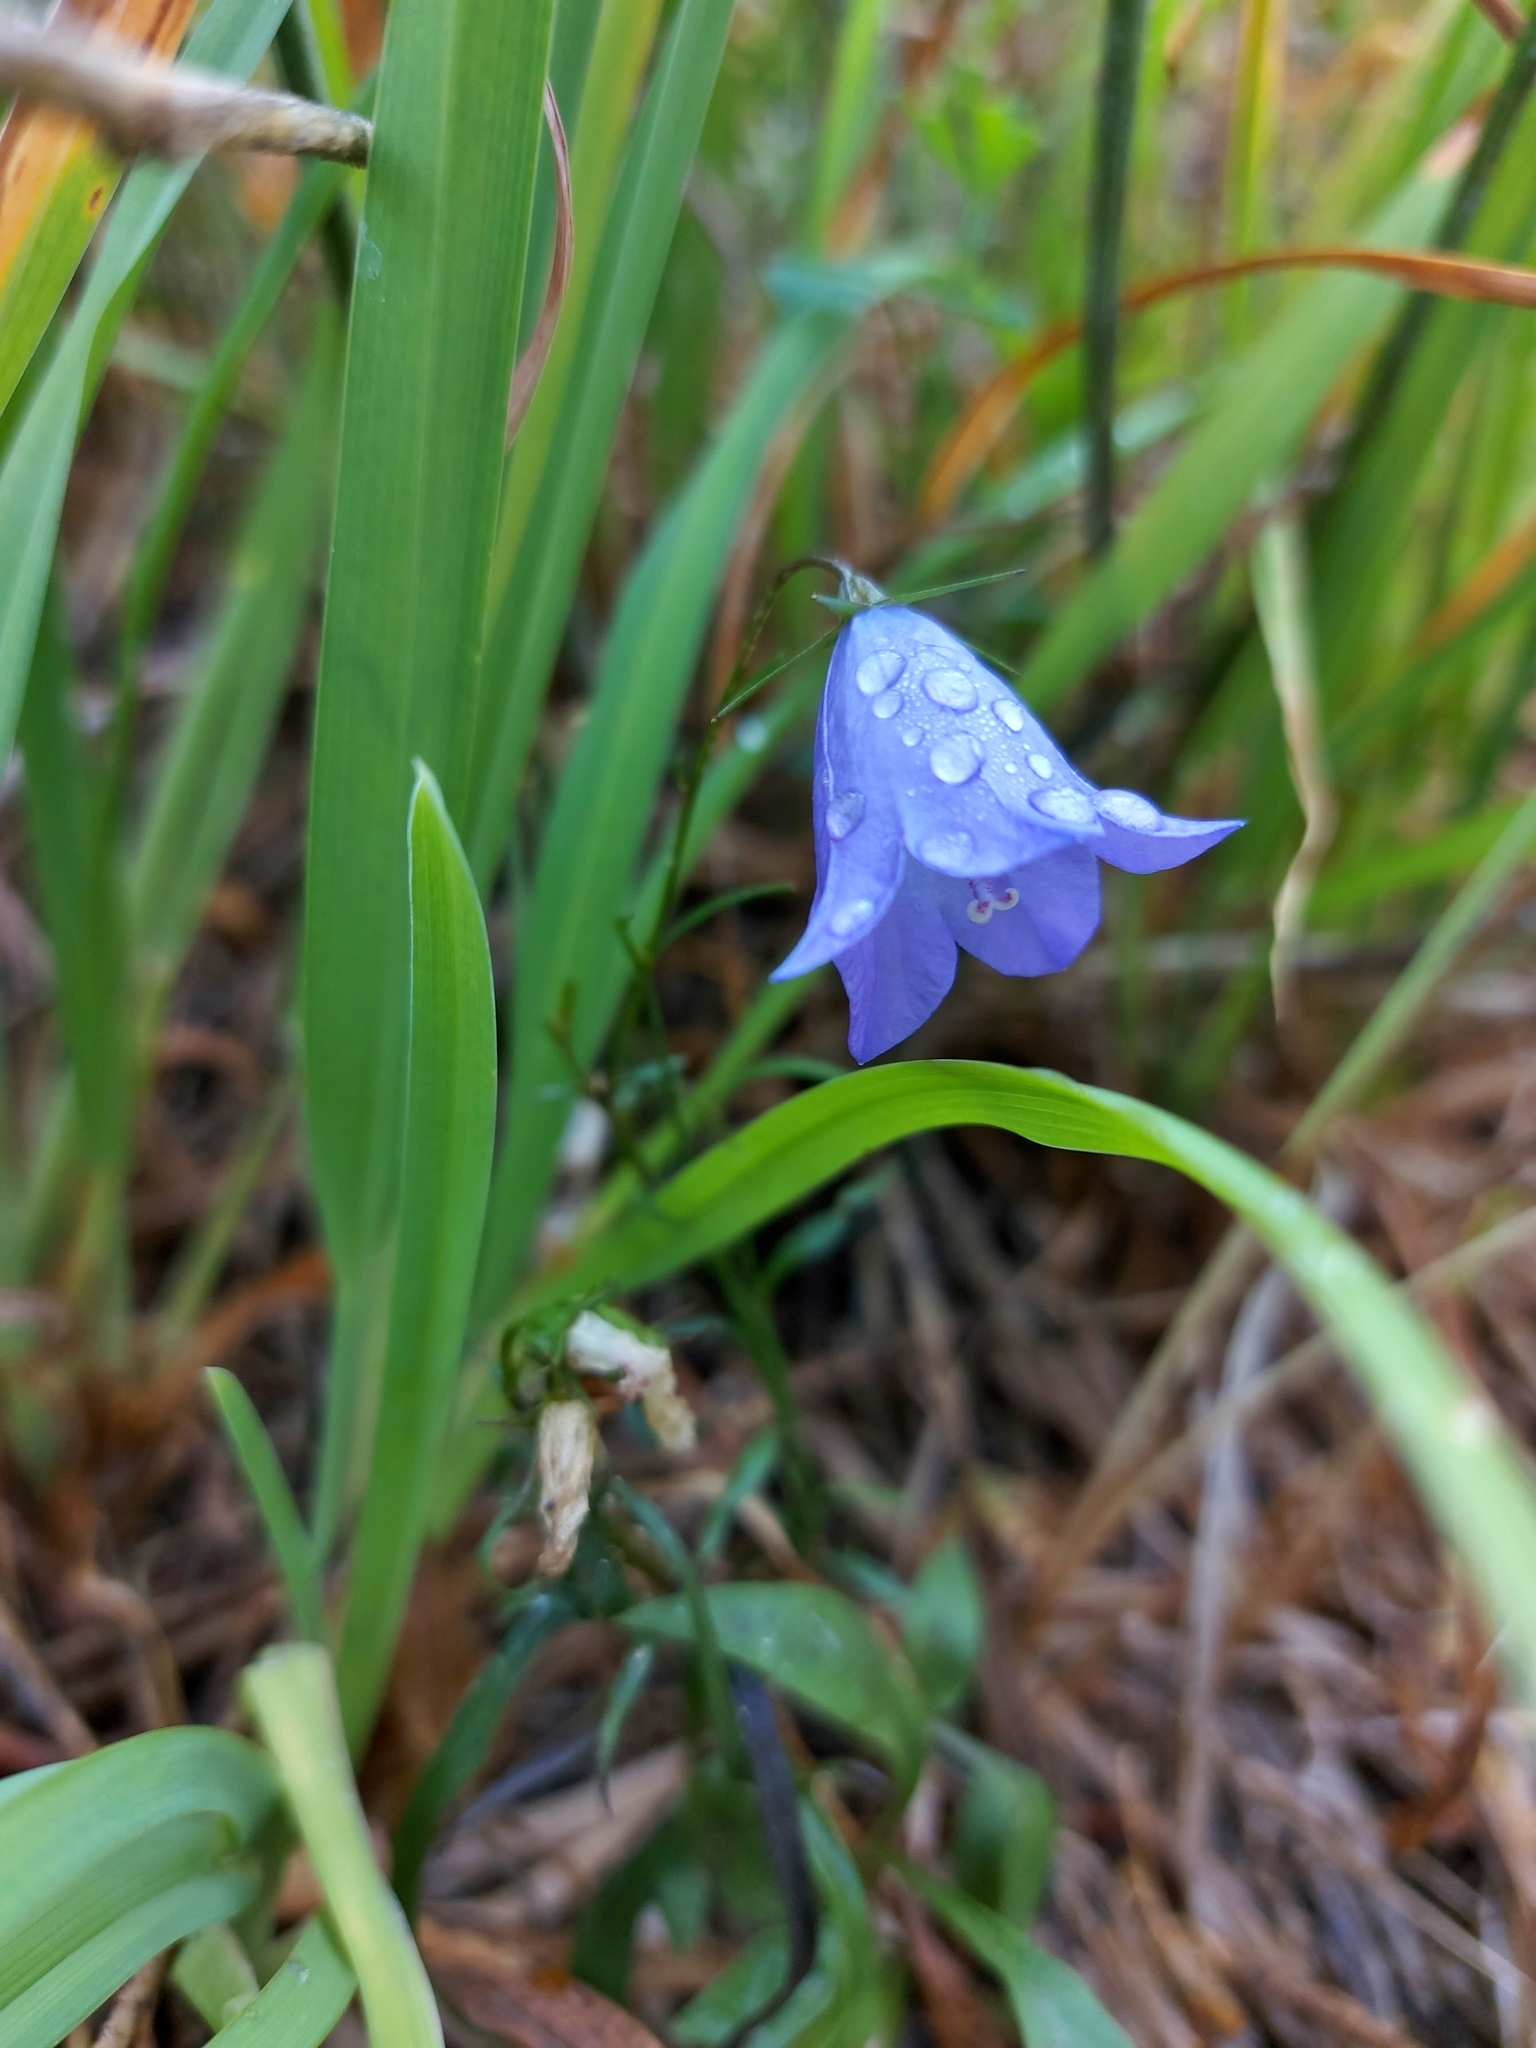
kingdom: Plantae
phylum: Tracheophyta
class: Magnoliopsida
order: Asterales
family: Campanulaceae
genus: Campanula
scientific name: Campanula alaskana
